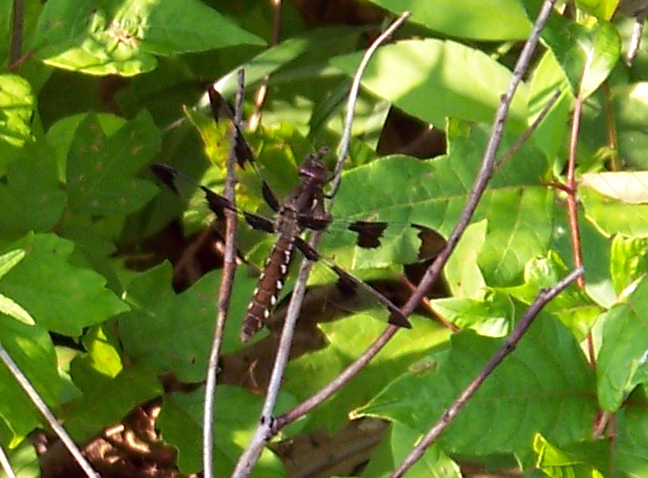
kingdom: Animalia
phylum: Arthropoda
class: Insecta
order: Odonata
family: Libellulidae
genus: Plathemis
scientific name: Plathemis lydia
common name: Common whitetail
